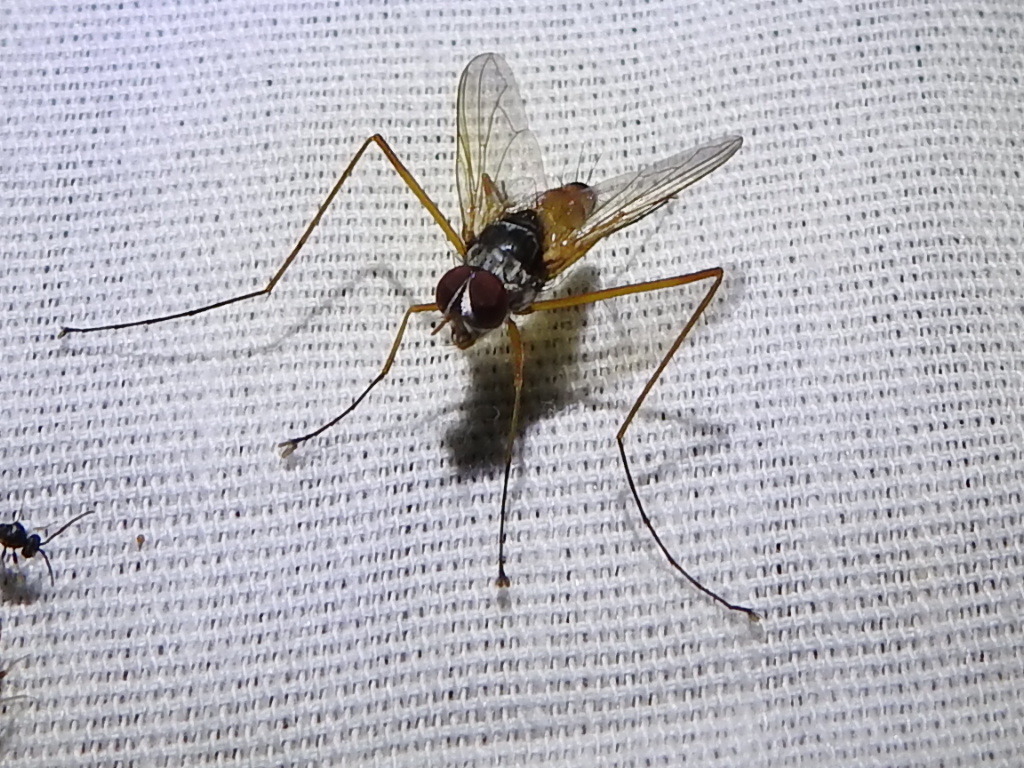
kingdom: Animalia
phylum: Arthropoda
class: Insecta
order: Diptera
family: Tachinidae
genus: Cholomyia
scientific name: Cholomyia inaequipes
